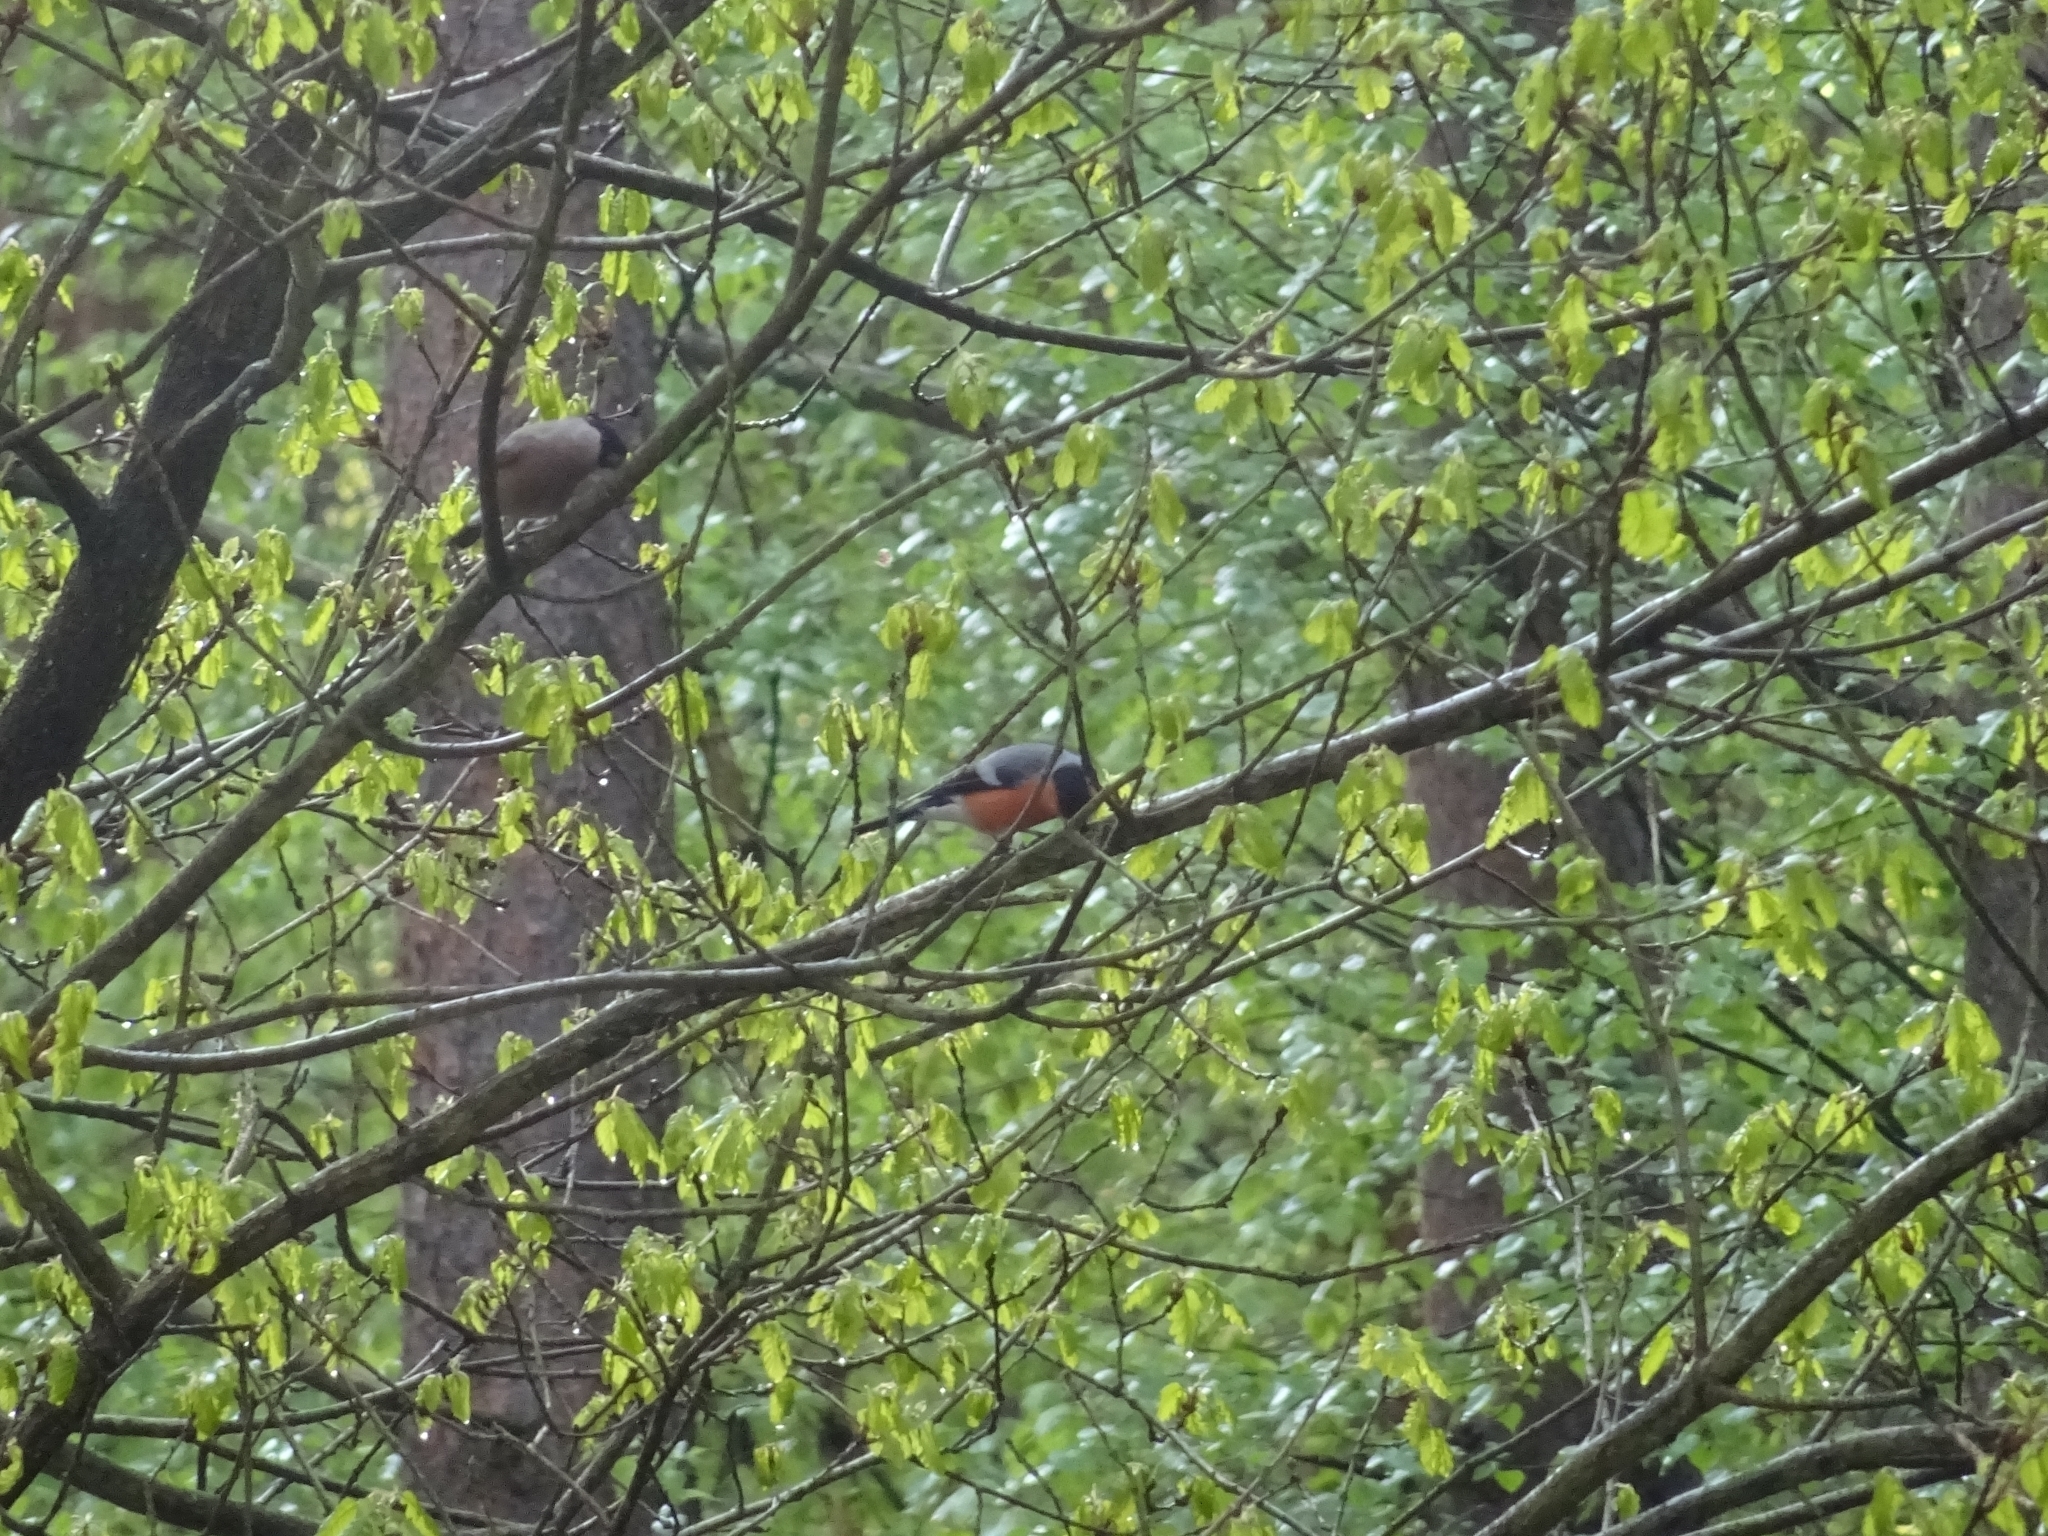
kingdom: Animalia
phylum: Chordata
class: Aves
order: Passeriformes
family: Fringillidae
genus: Pyrrhula
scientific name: Pyrrhula pyrrhula
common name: Eurasian bullfinch
